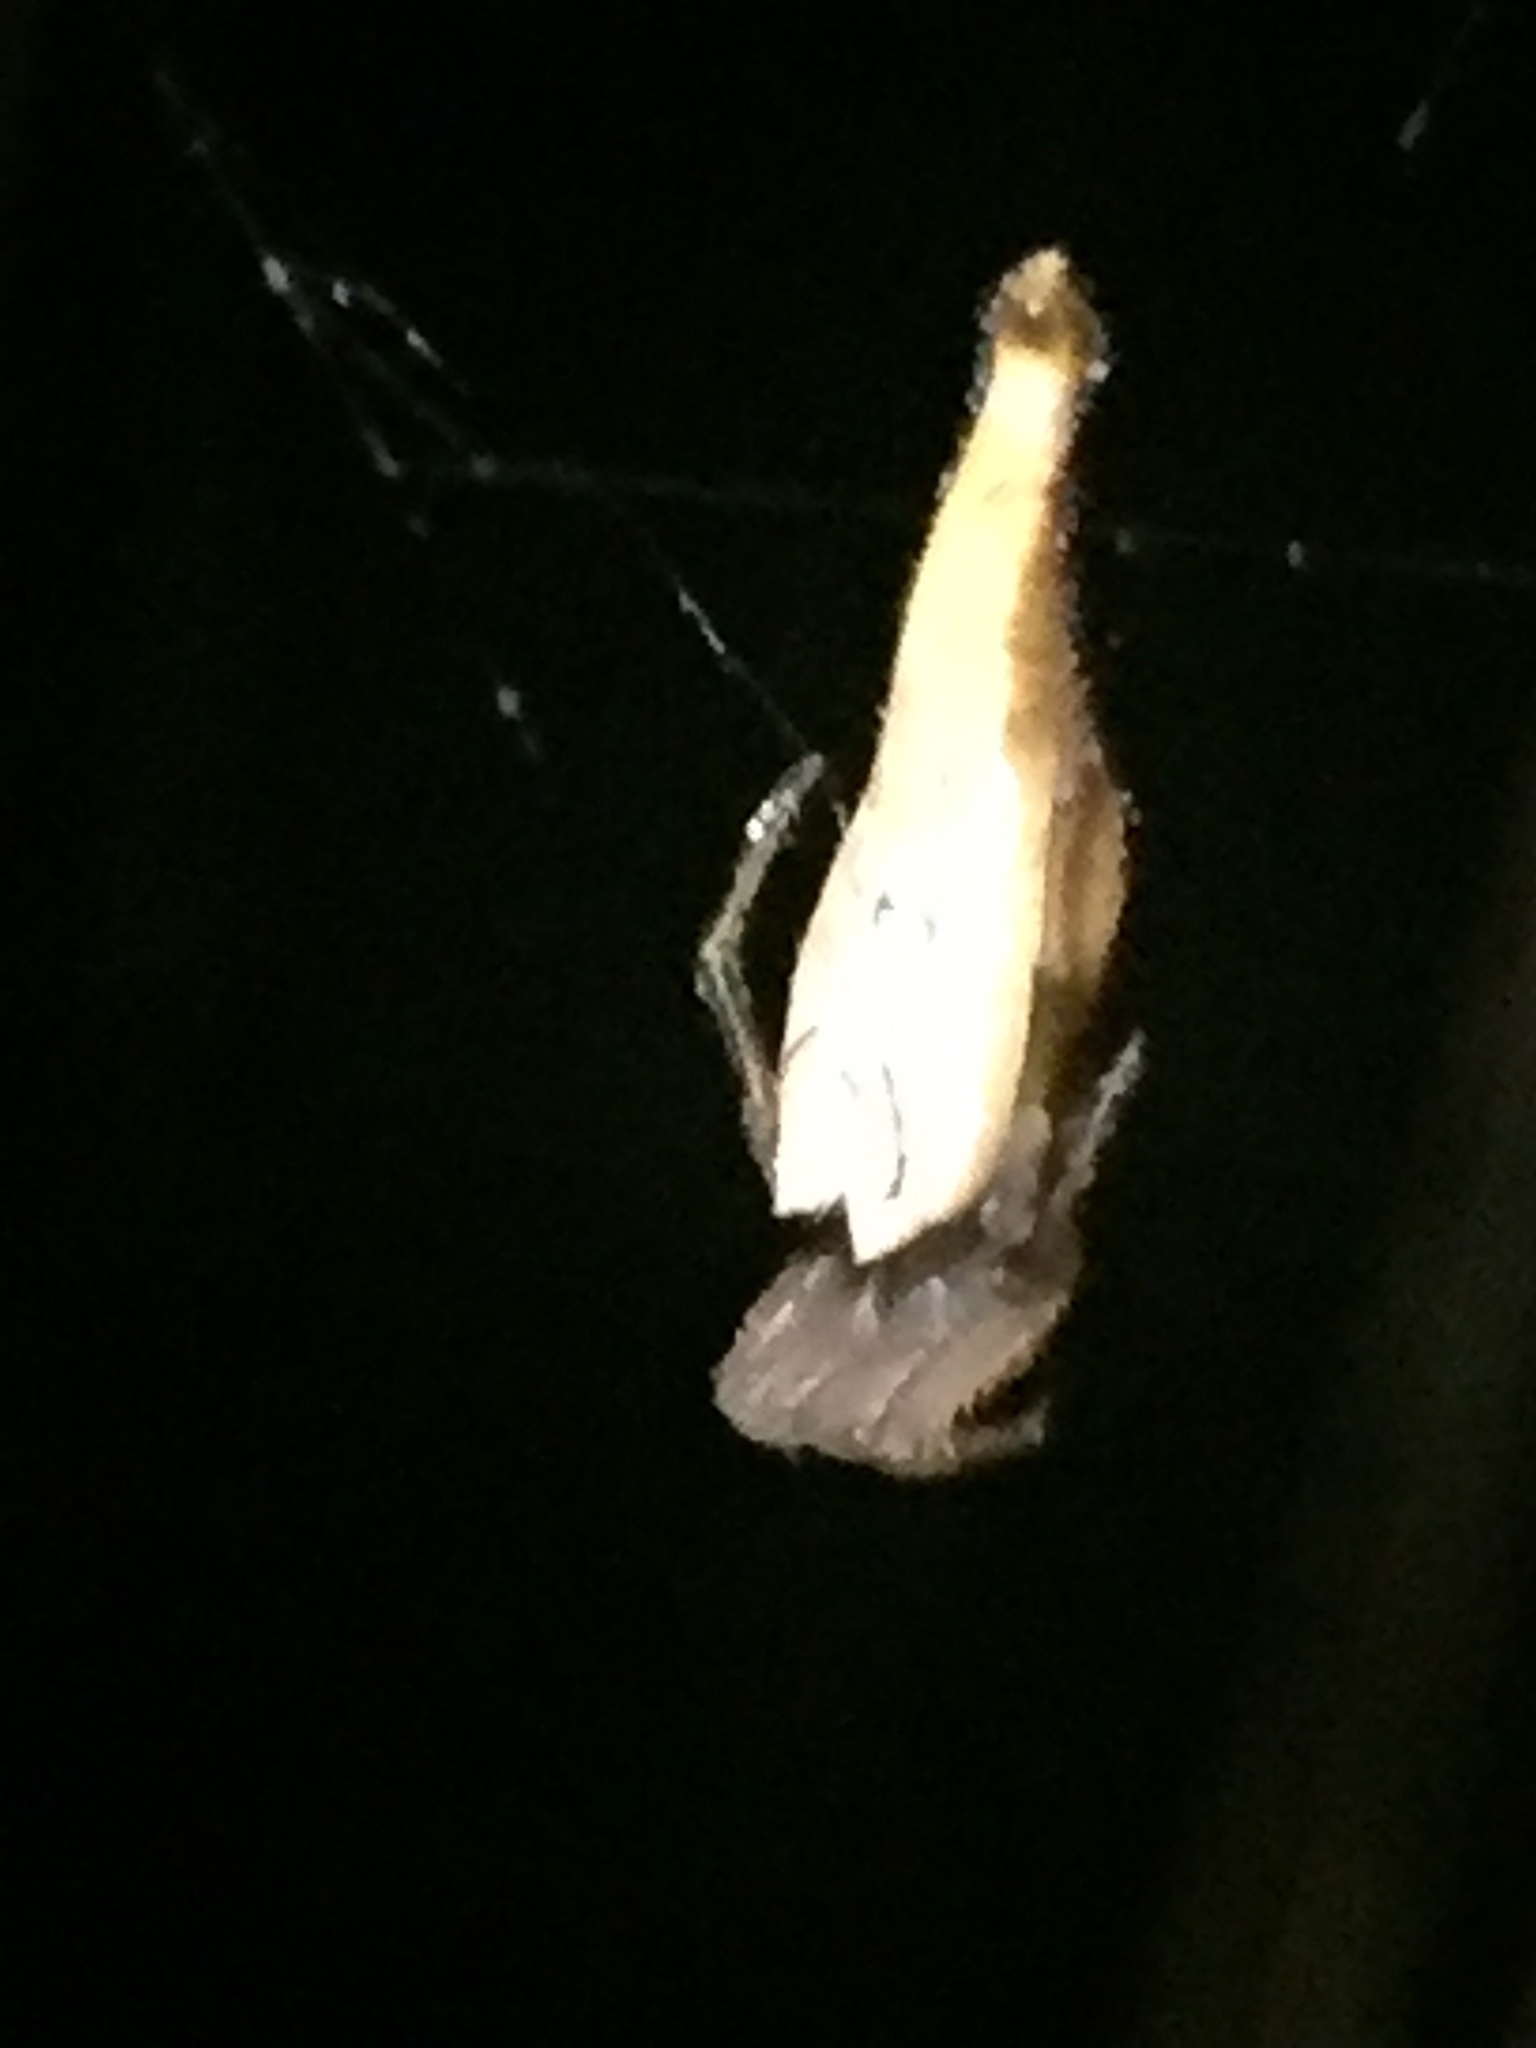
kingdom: Animalia
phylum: Arthropoda
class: Arachnida
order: Araneae
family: Araneidae
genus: Arachnura
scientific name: Arachnura feredayi
